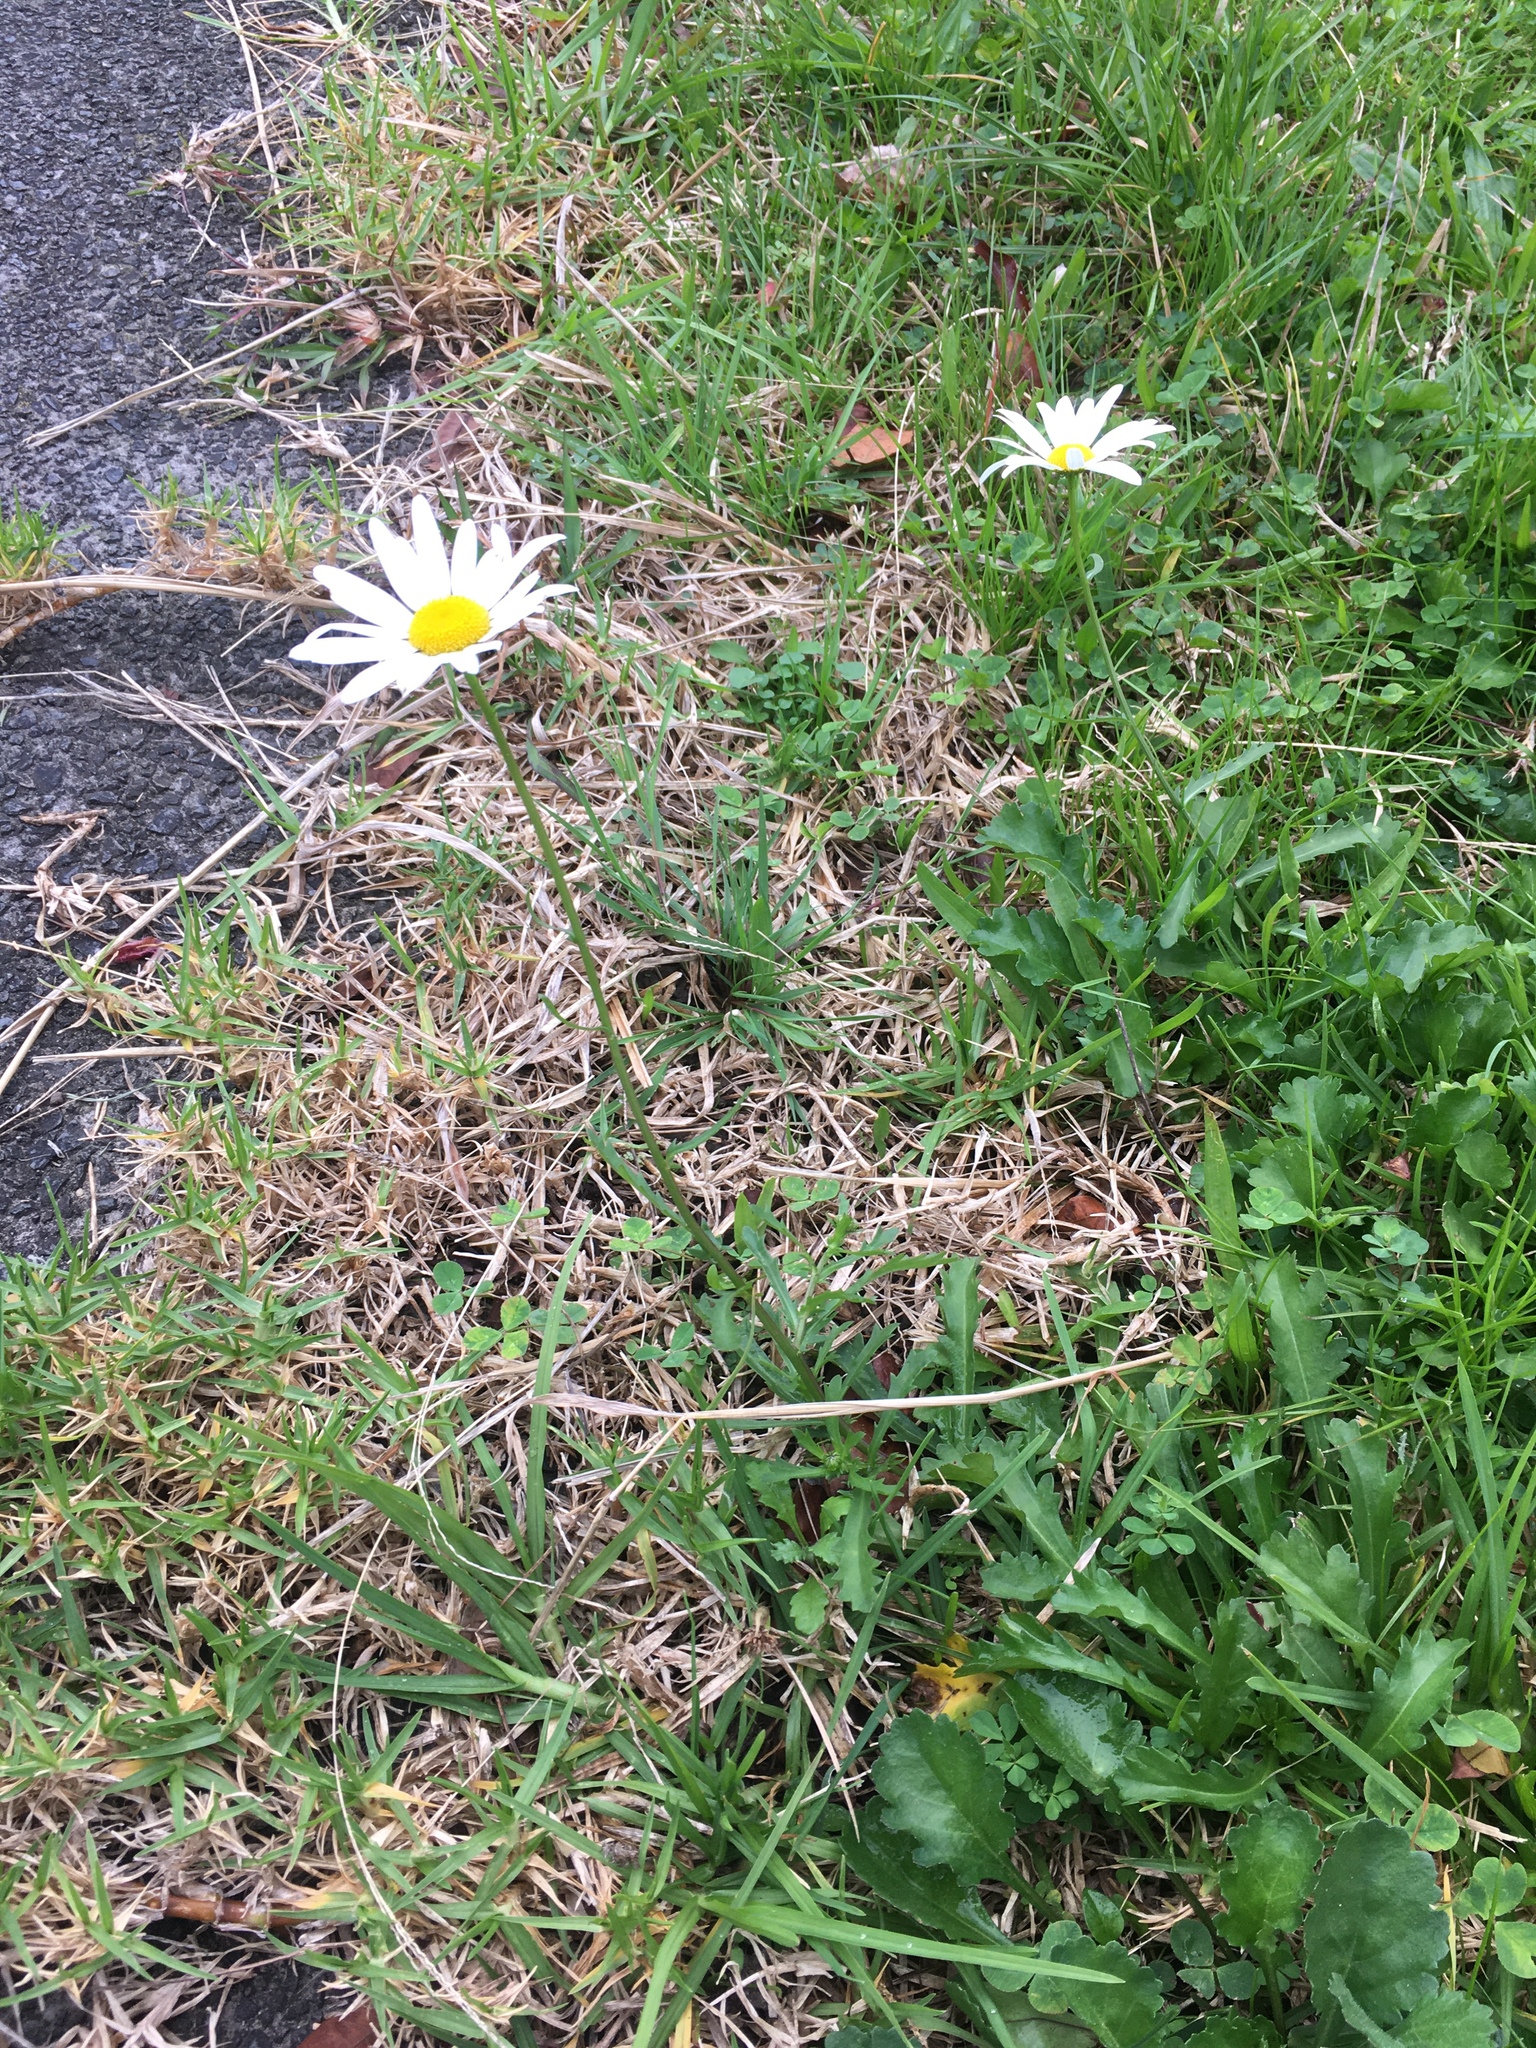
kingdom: Plantae
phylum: Tracheophyta
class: Magnoliopsida
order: Asterales
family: Asteraceae
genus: Leucanthemum
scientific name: Leucanthemum vulgare
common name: Oxeye daisy
